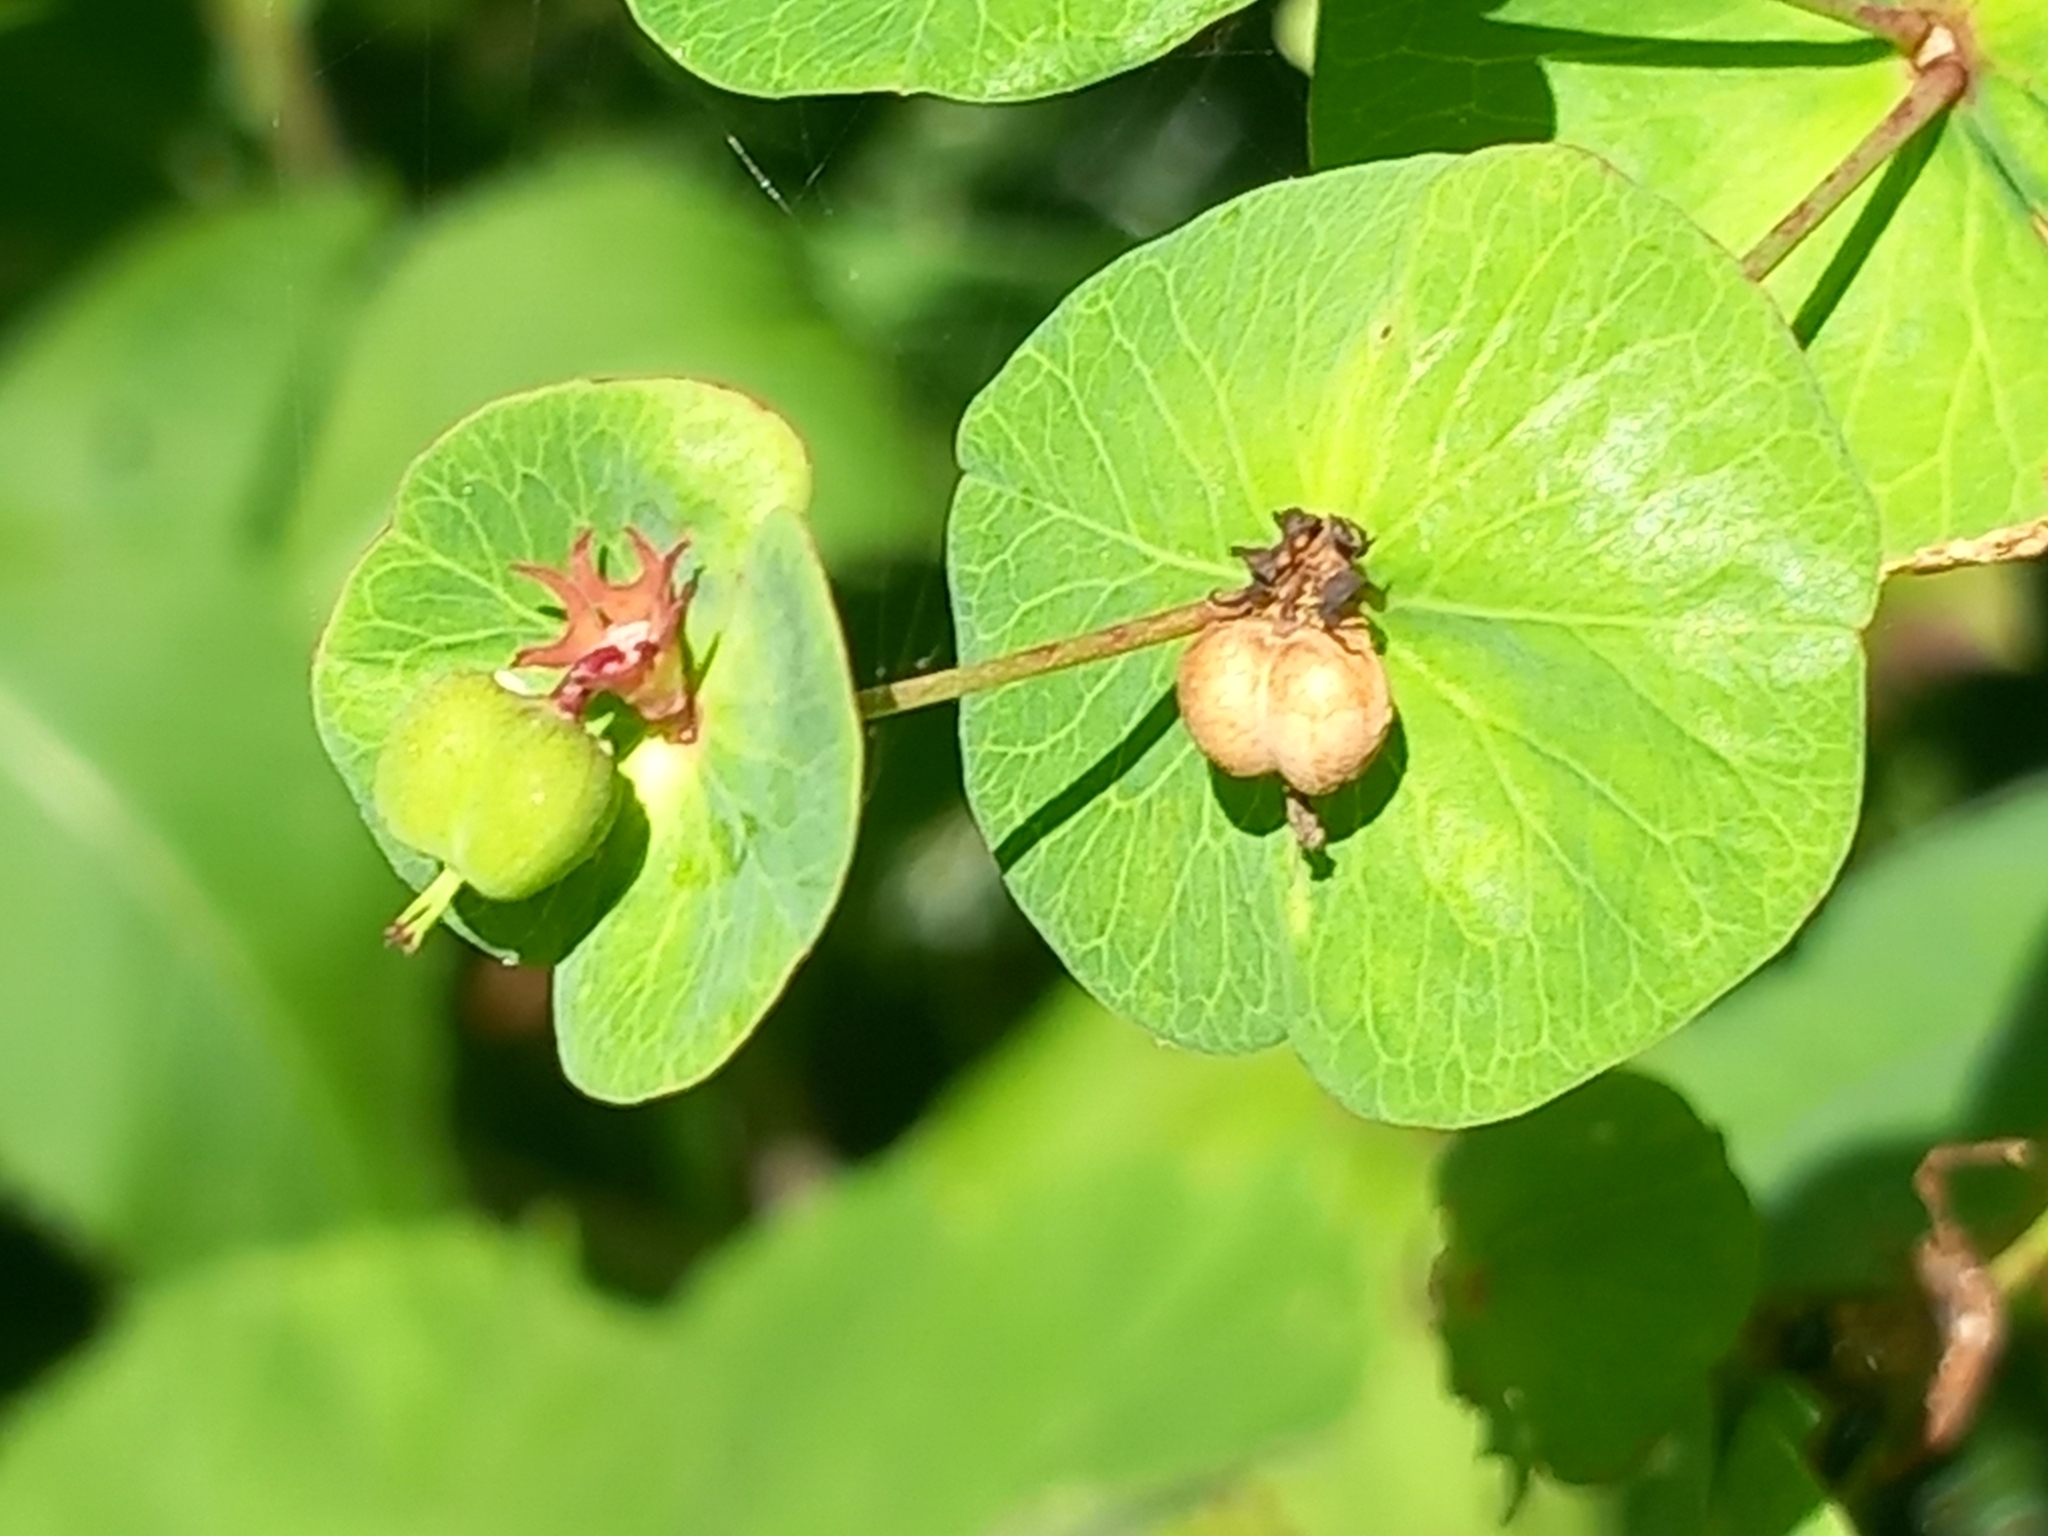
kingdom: Plantae
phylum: Tracheophyta
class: Magnoliopsida
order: Malpighiales
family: Euphorbiaceae
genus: Euphorbia
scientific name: Euphorbia macroceras
